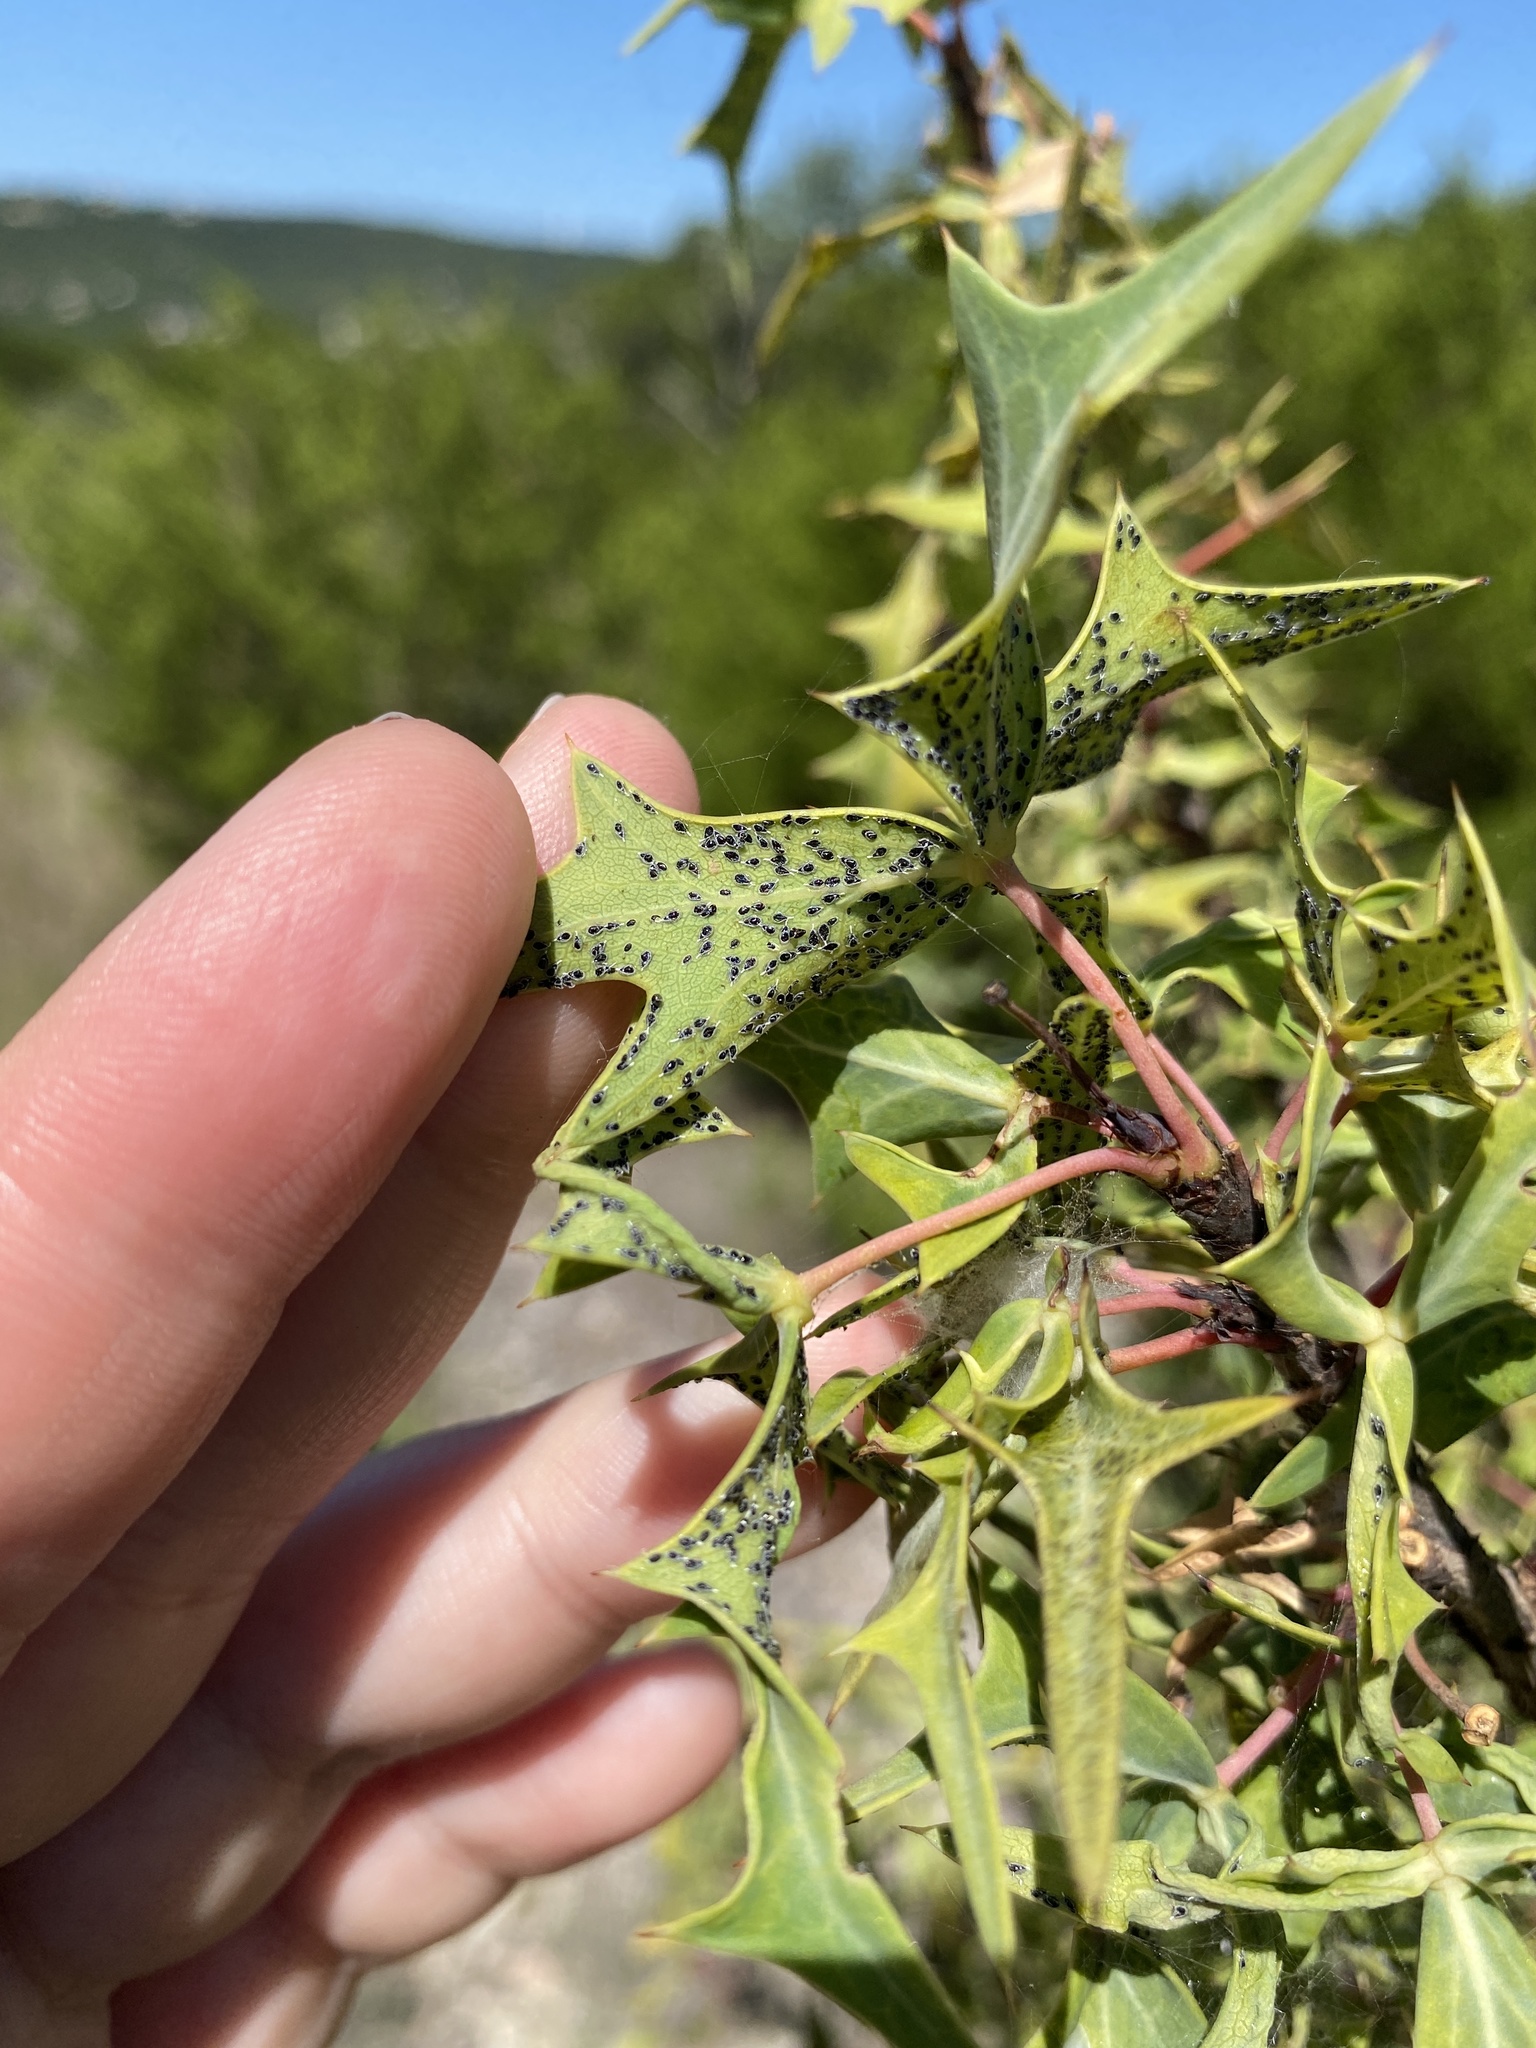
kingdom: Animalia
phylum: Arthropoda
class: Insecta
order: Hemiptera
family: Aleyrodidae
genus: Aleuroplatus
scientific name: Aleuroplatus berbericolus
